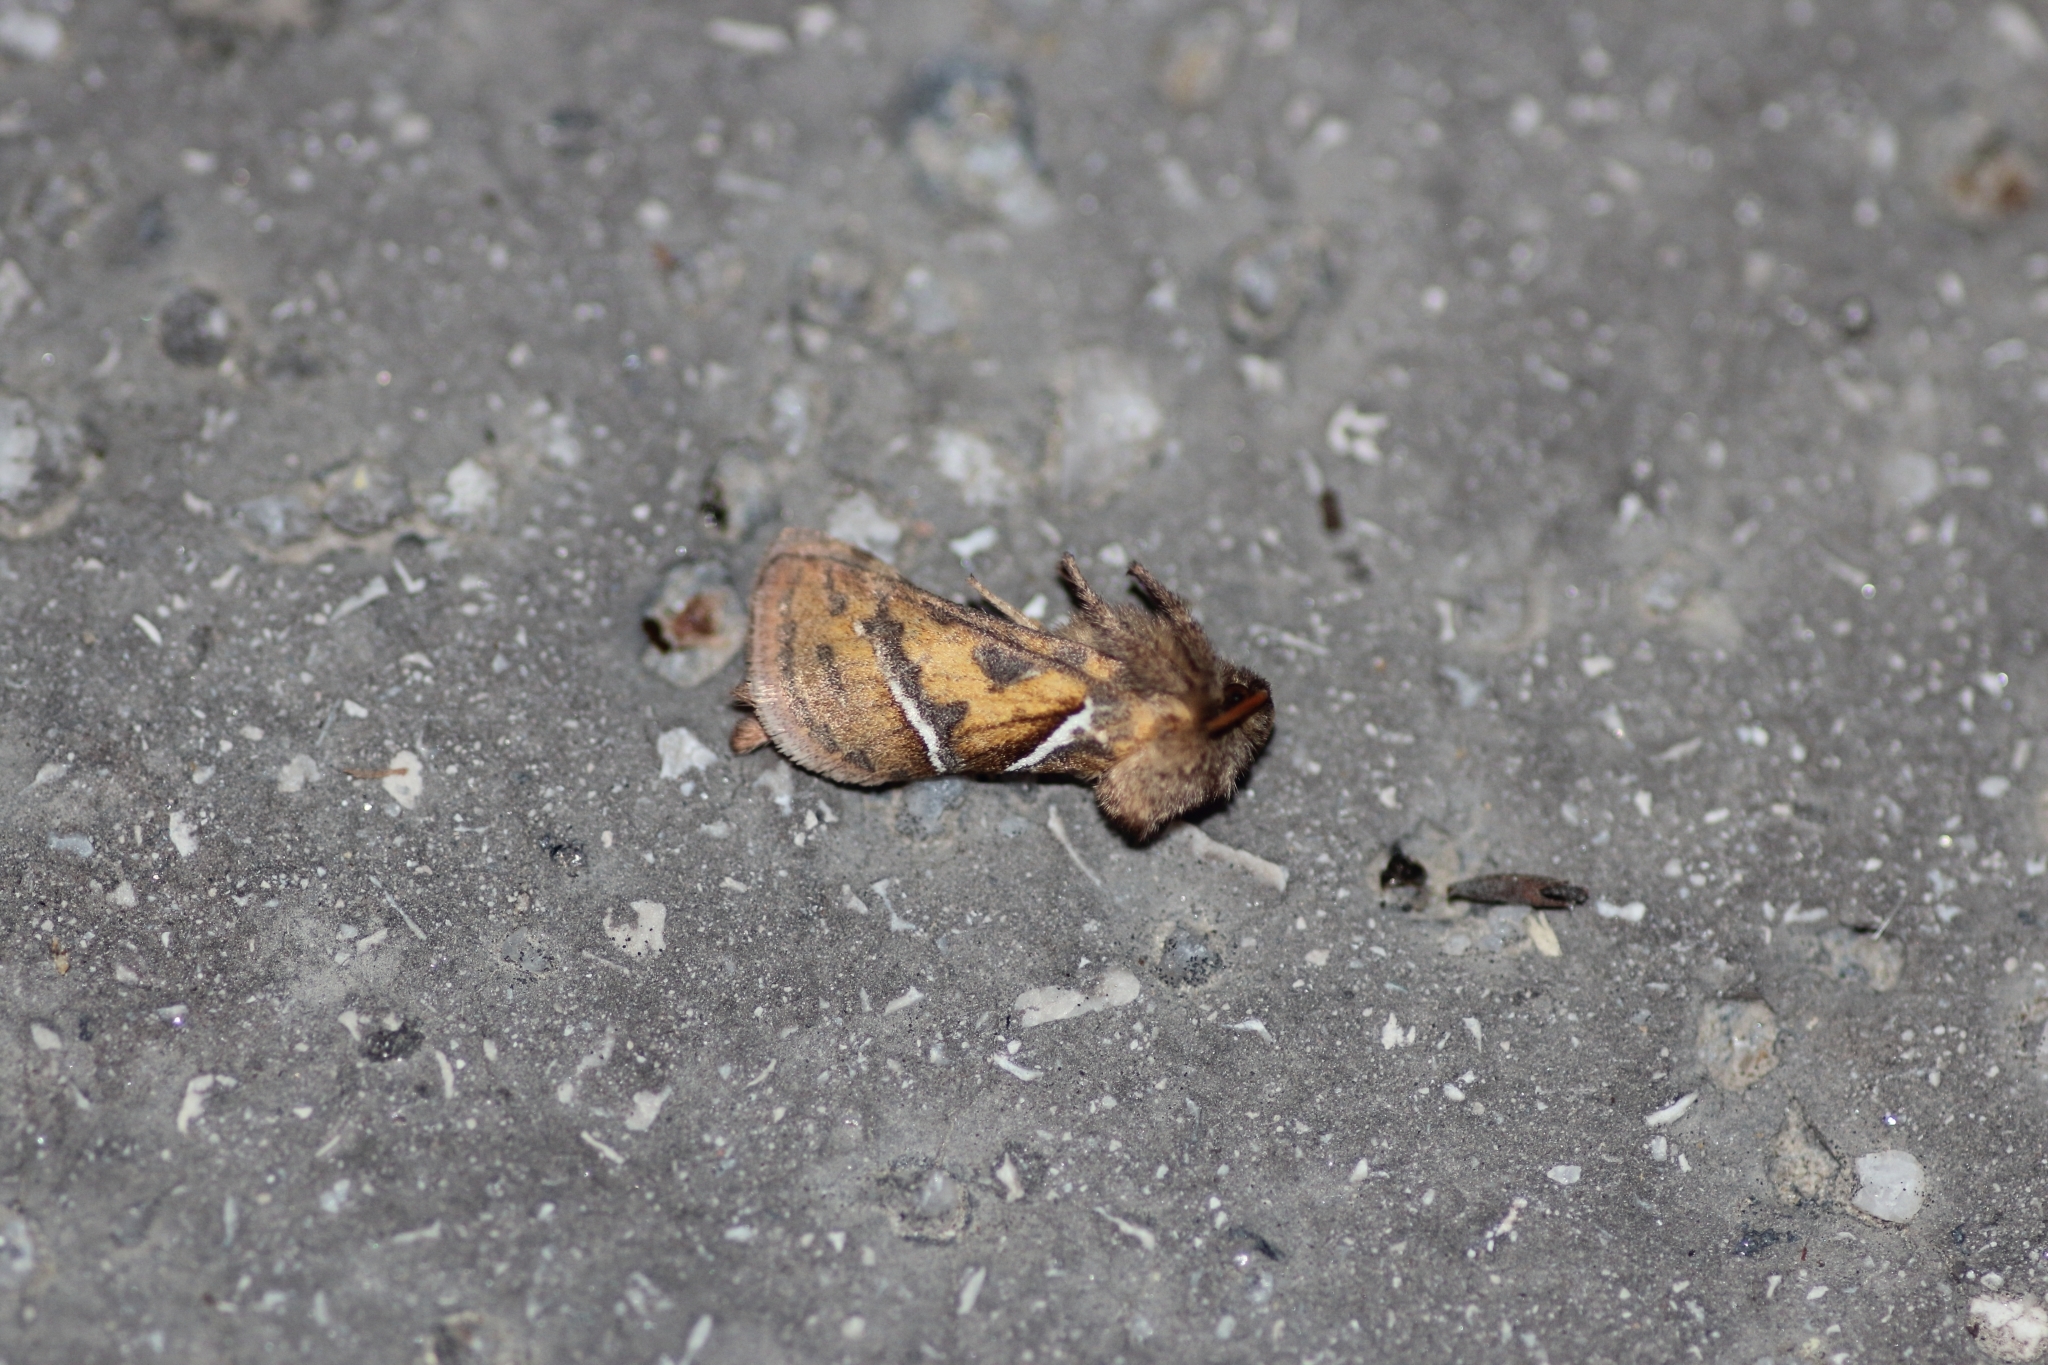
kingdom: Animalia
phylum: Arthropoda
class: Insecta
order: Lepidoptera
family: Hepialidae
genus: Triodia
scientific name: Triodia sylvina
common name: Orange swift
